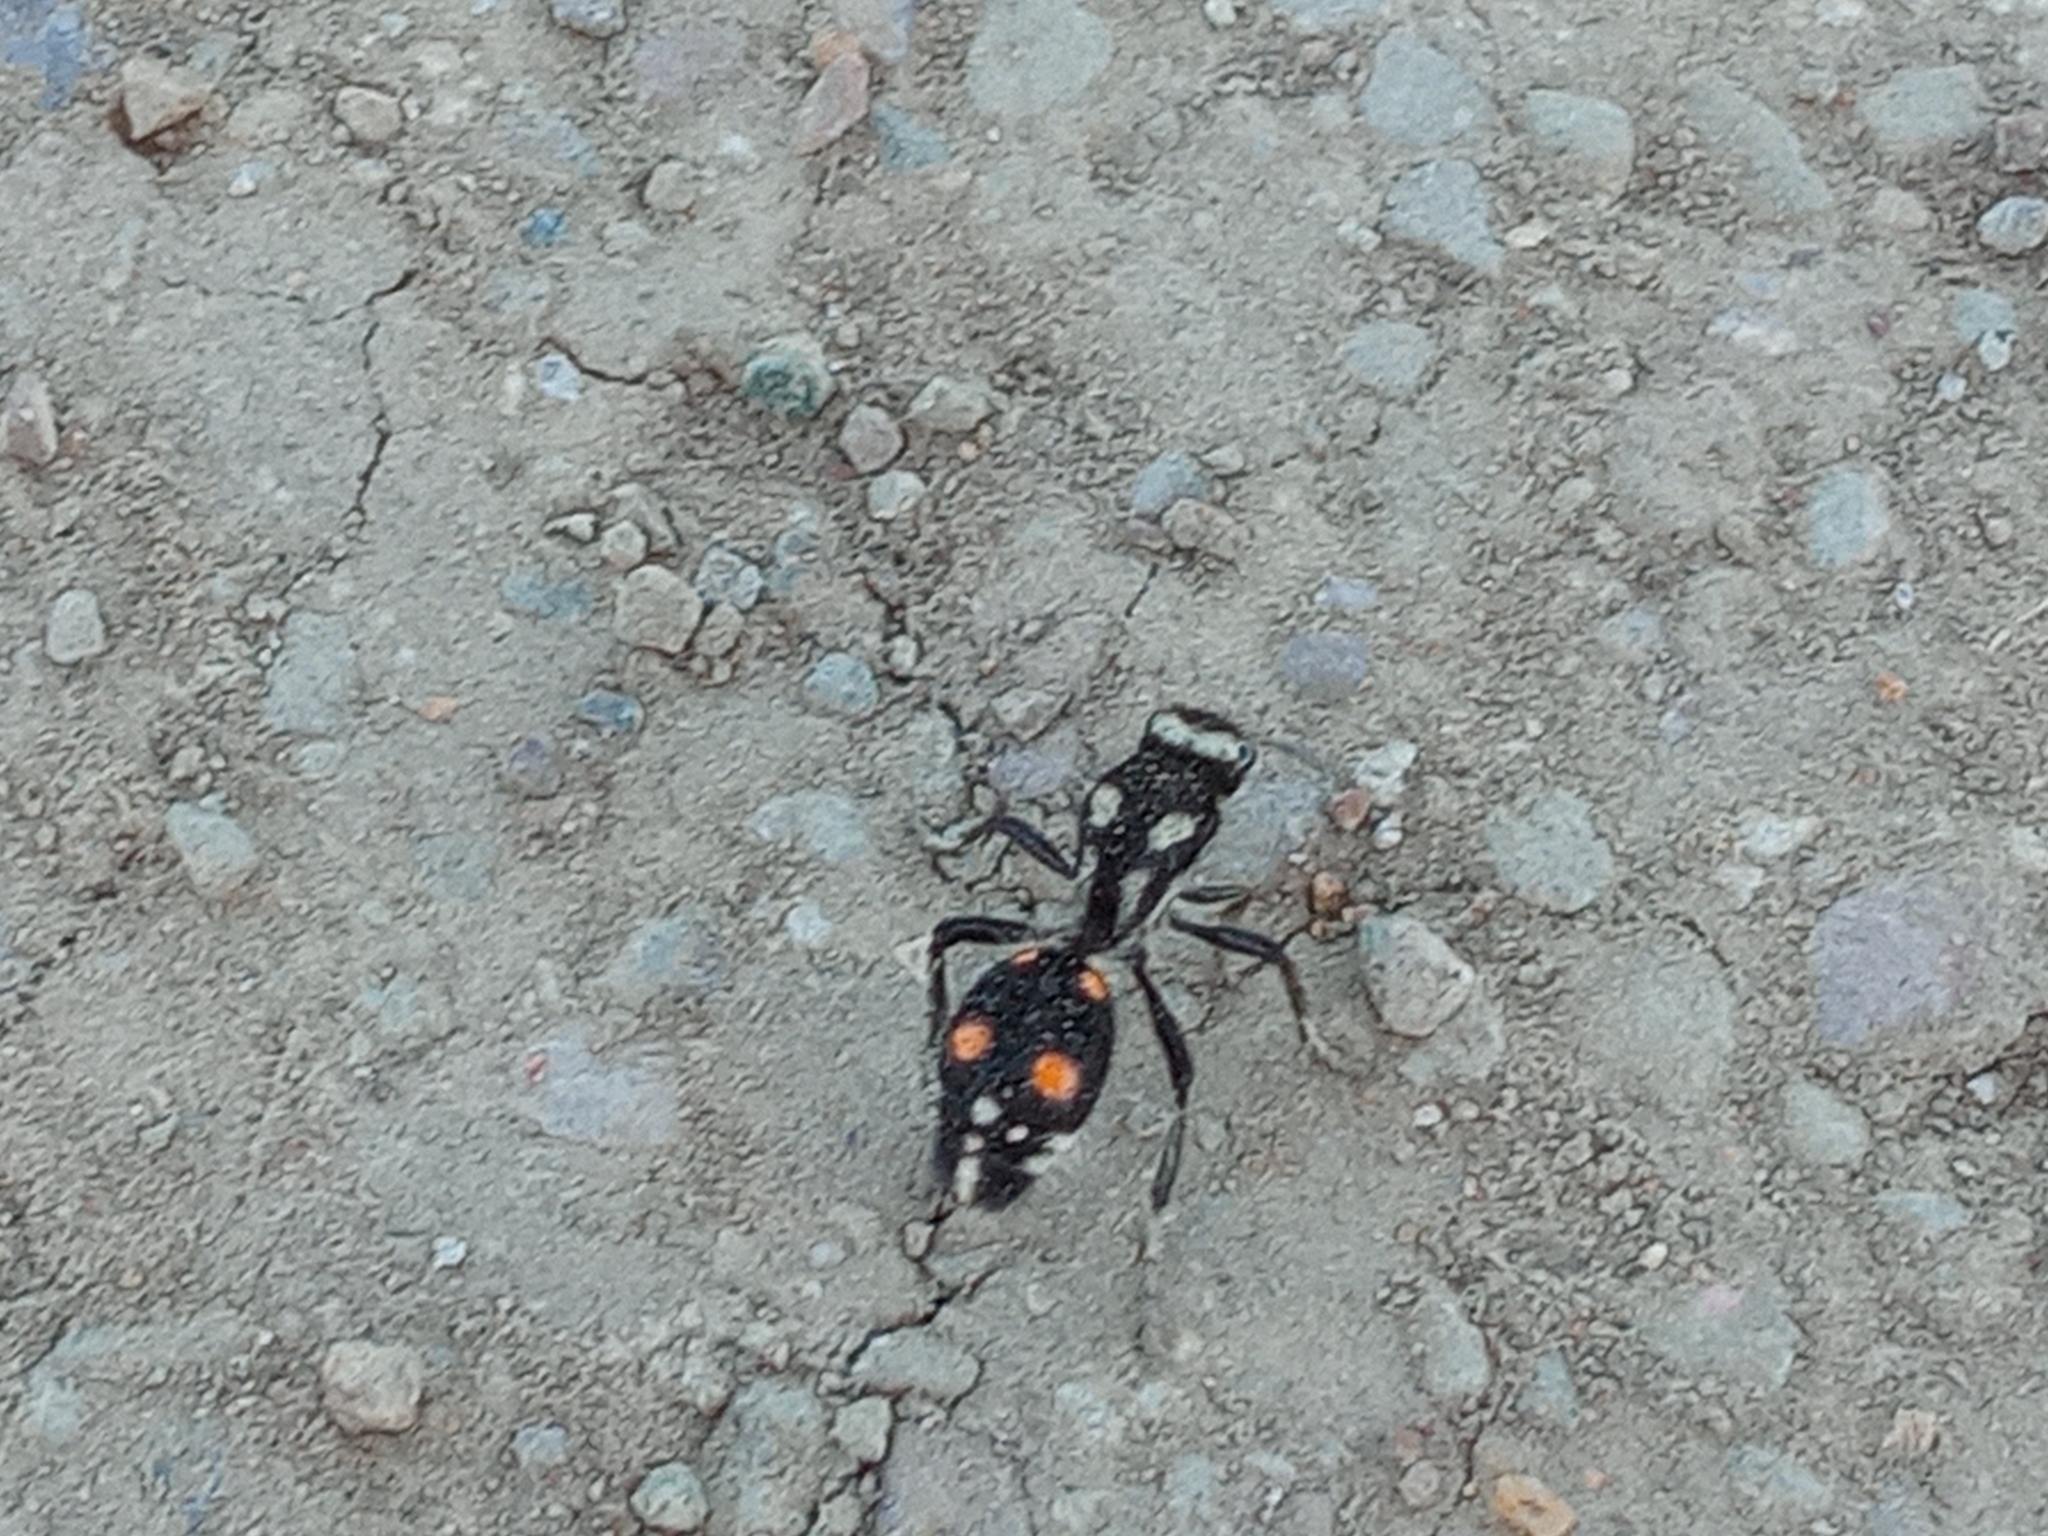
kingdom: Animalia
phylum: Arthropoda
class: Insecta
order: Hymenoptera
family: Mutillidae
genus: Traumatomutilla
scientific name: Traumatomutilla
